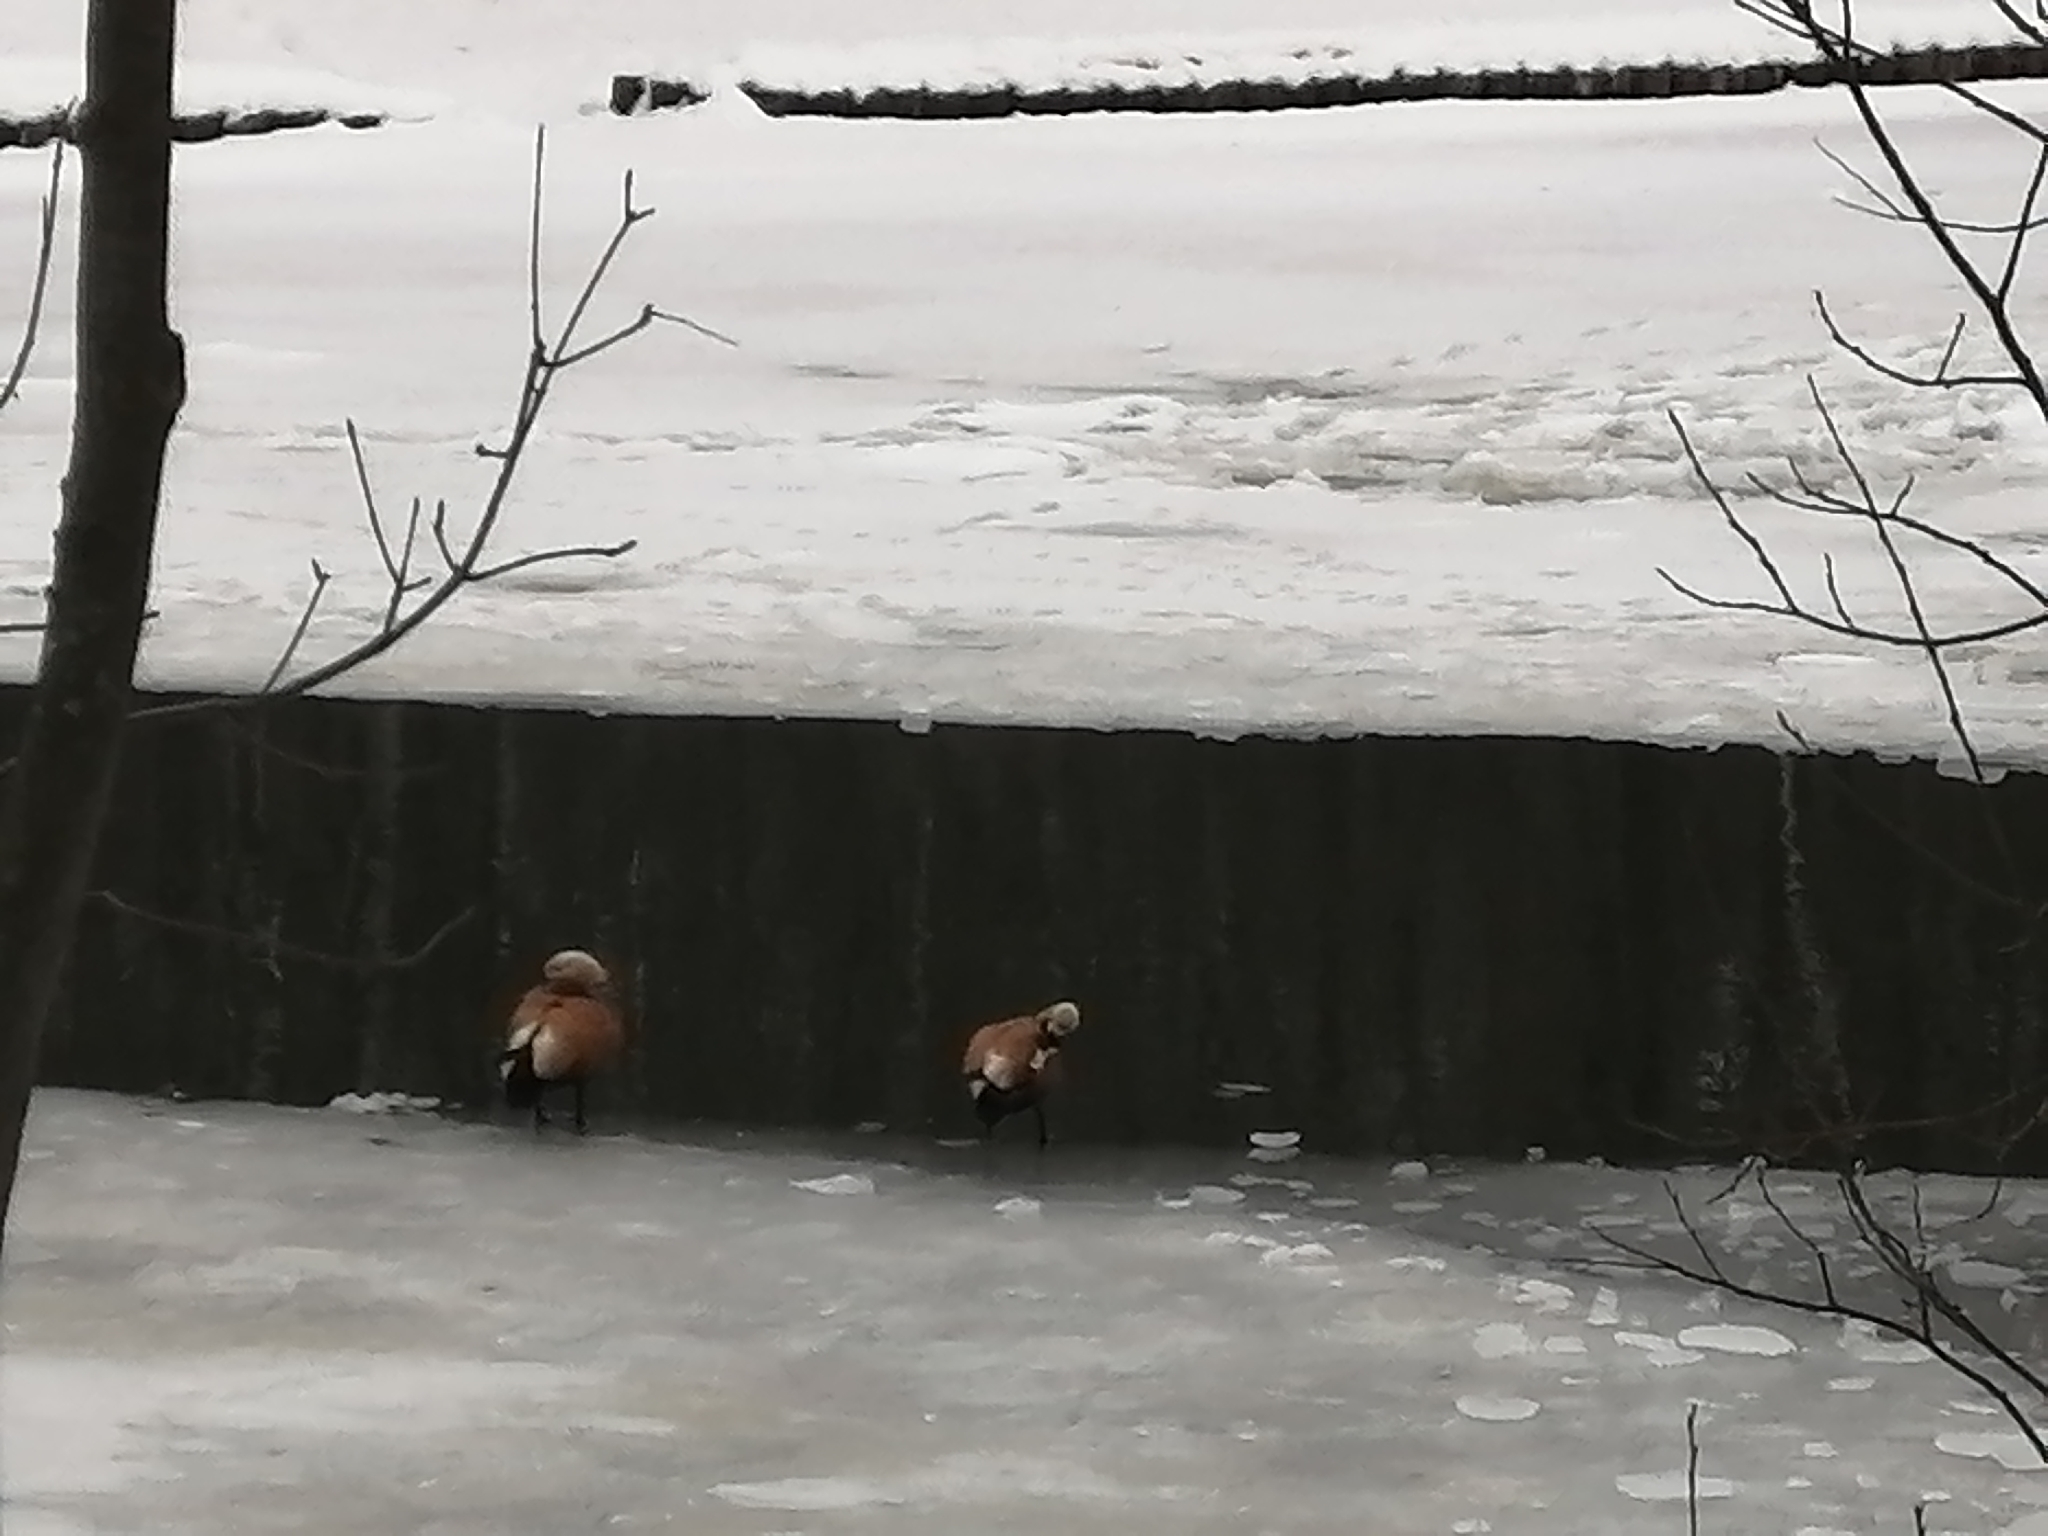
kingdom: Animalia
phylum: Chordata
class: Aves
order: Anseriformes
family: Anatidae
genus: Tadorna
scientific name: Tadorna ferruginea
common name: Ruddy shelduck
